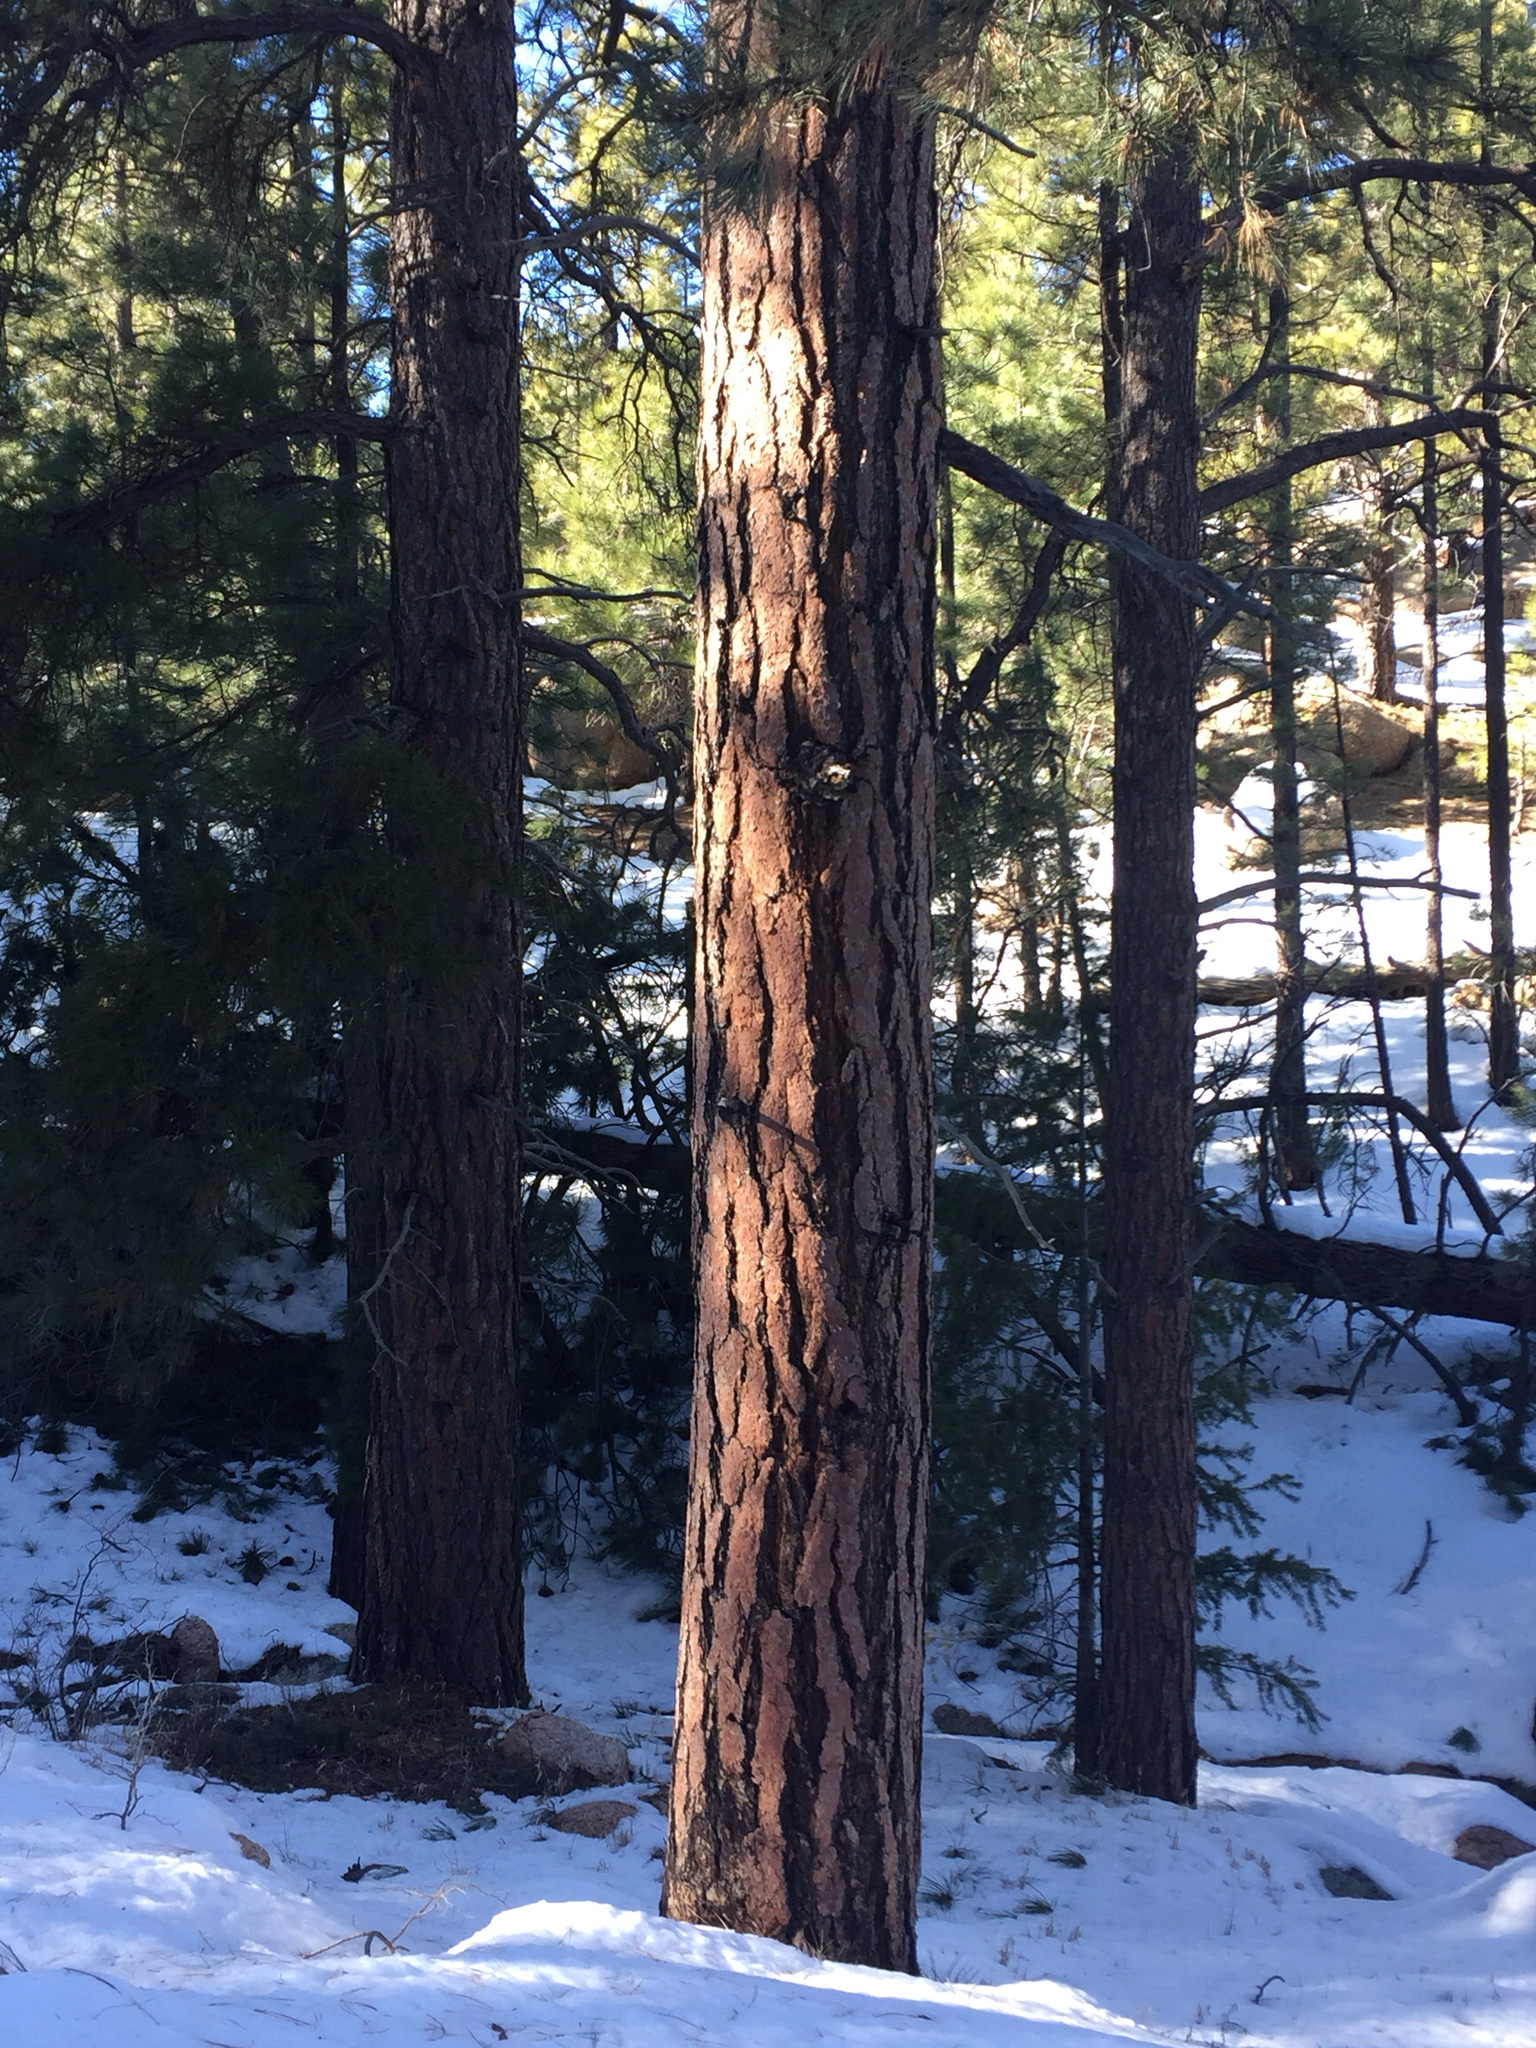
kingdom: Plantae
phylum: Tracheophyta
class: Pinopsida
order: Pinales
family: Pinaceae
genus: Pinus
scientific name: Pinus ponderosa
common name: Western yellow-pine
